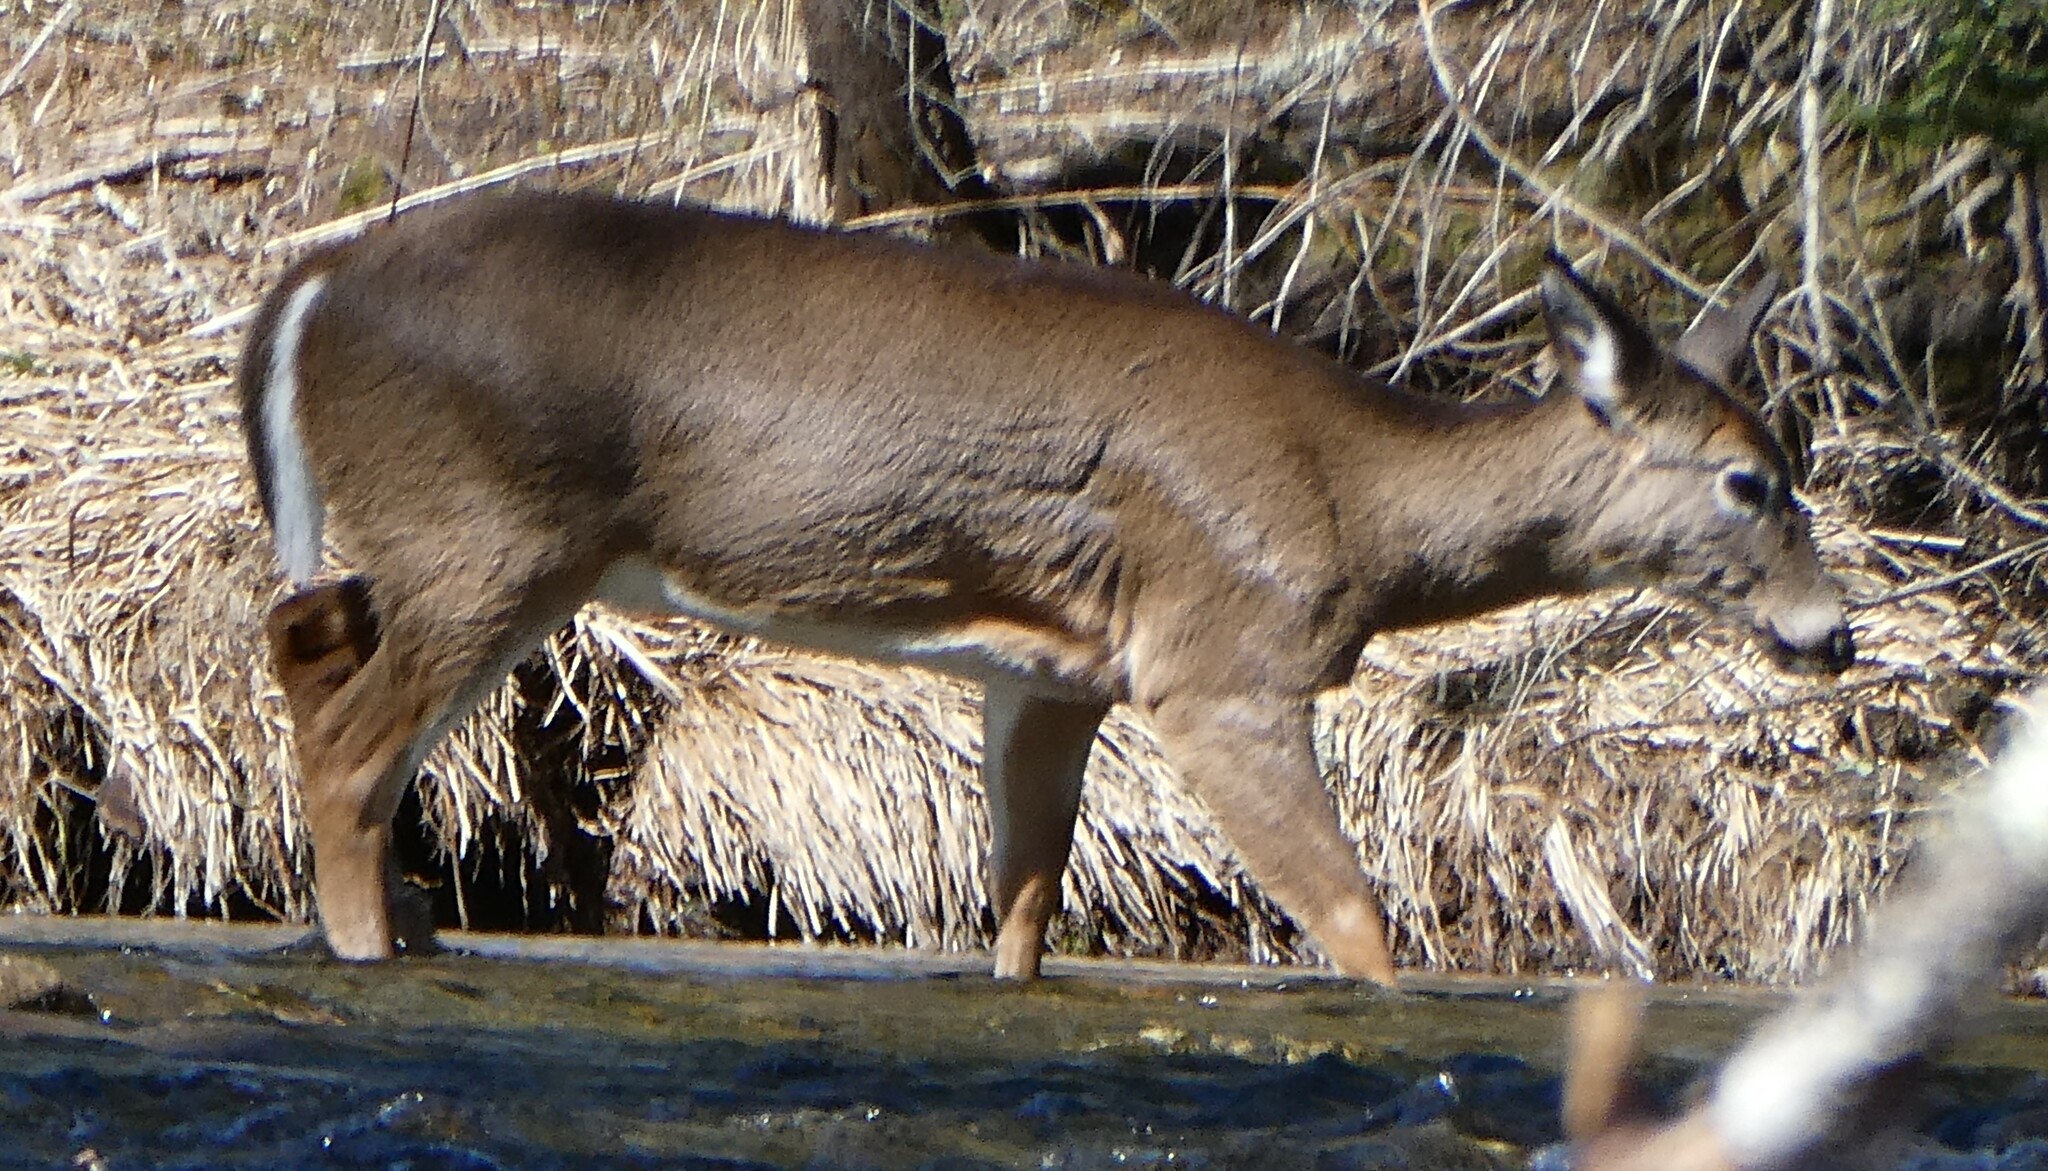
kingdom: Animalia
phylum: Chordata
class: Mammalia
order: Artiodactyla
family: Cervidae
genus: Odocoileus
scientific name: Odocoileus virginianus
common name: White-tailed deer
